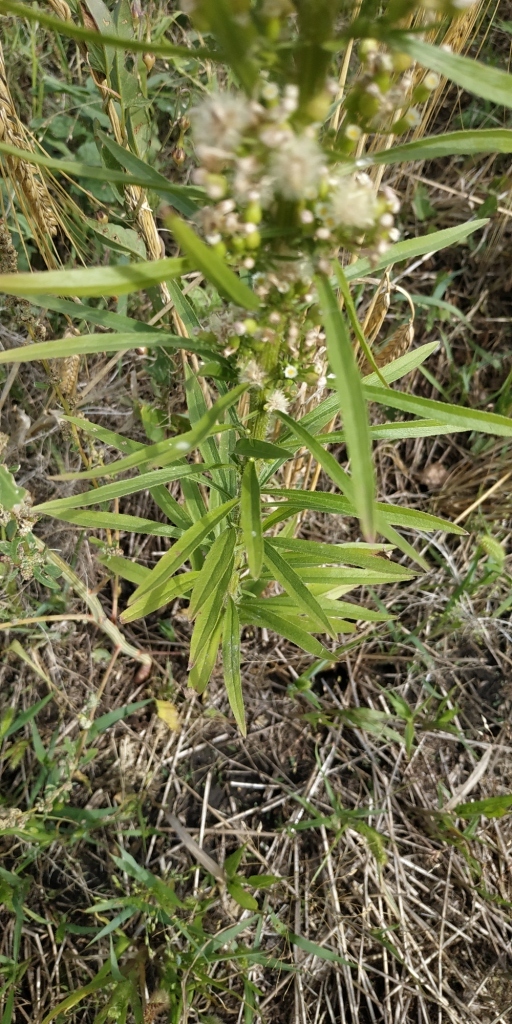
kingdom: Plantae
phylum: Tracheophyta
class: Magnoliopsida
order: Asterales
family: Asteraceae
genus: Erigeron
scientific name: Erigeron canadensis
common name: Canadian fleabane
